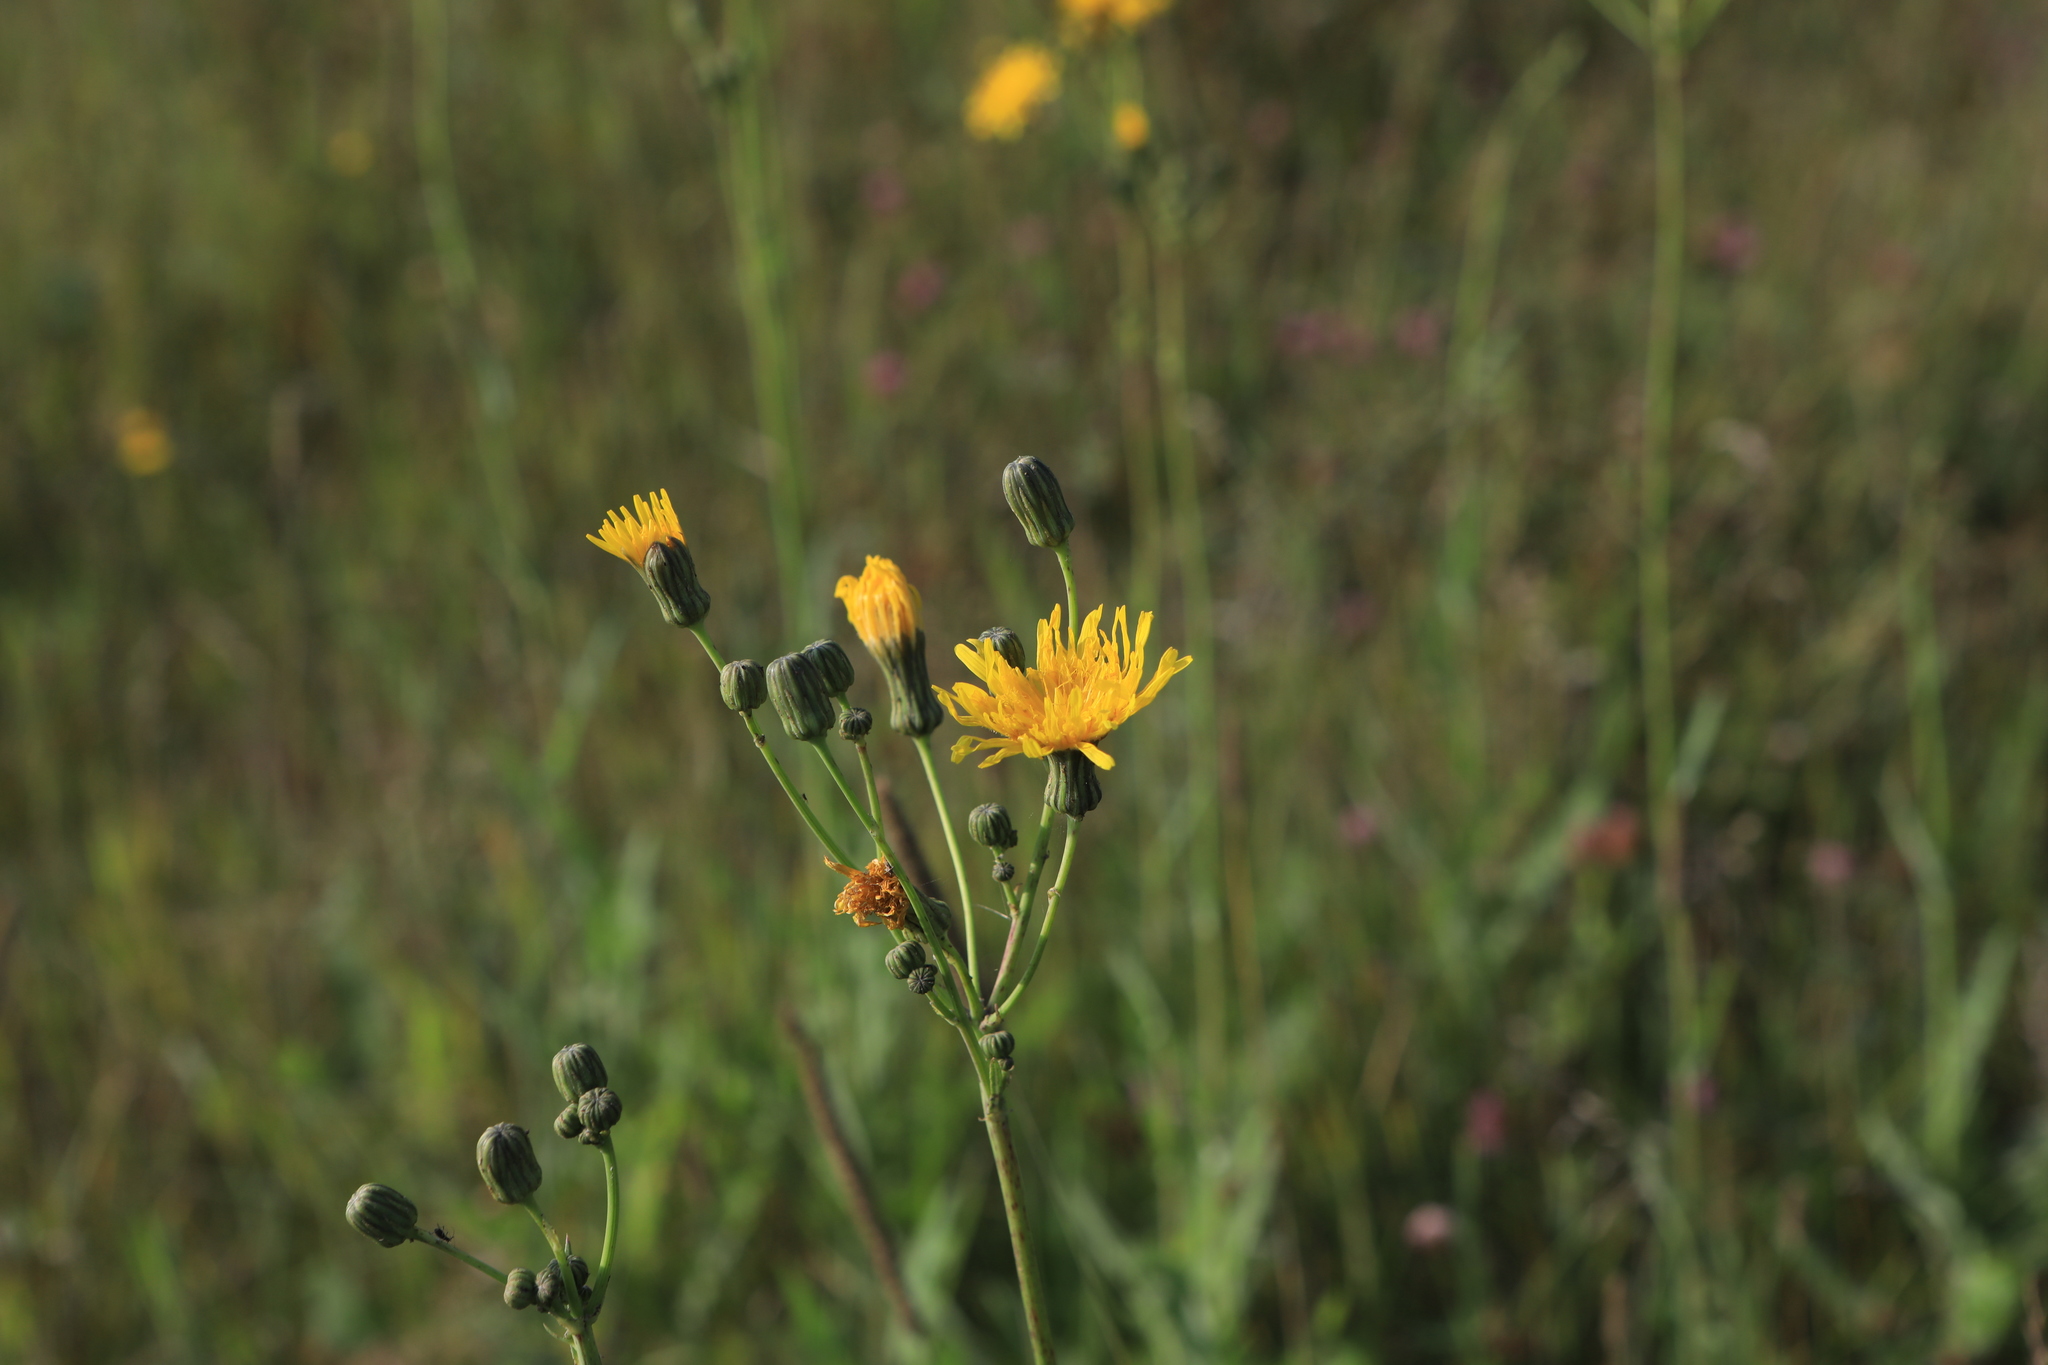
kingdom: Plantae
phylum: Tracheophyta
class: Magnoliopsida
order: Asterales
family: Asteraceae
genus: Sonchus
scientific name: Sonchus arvensis
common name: Perennial sow-thistle
